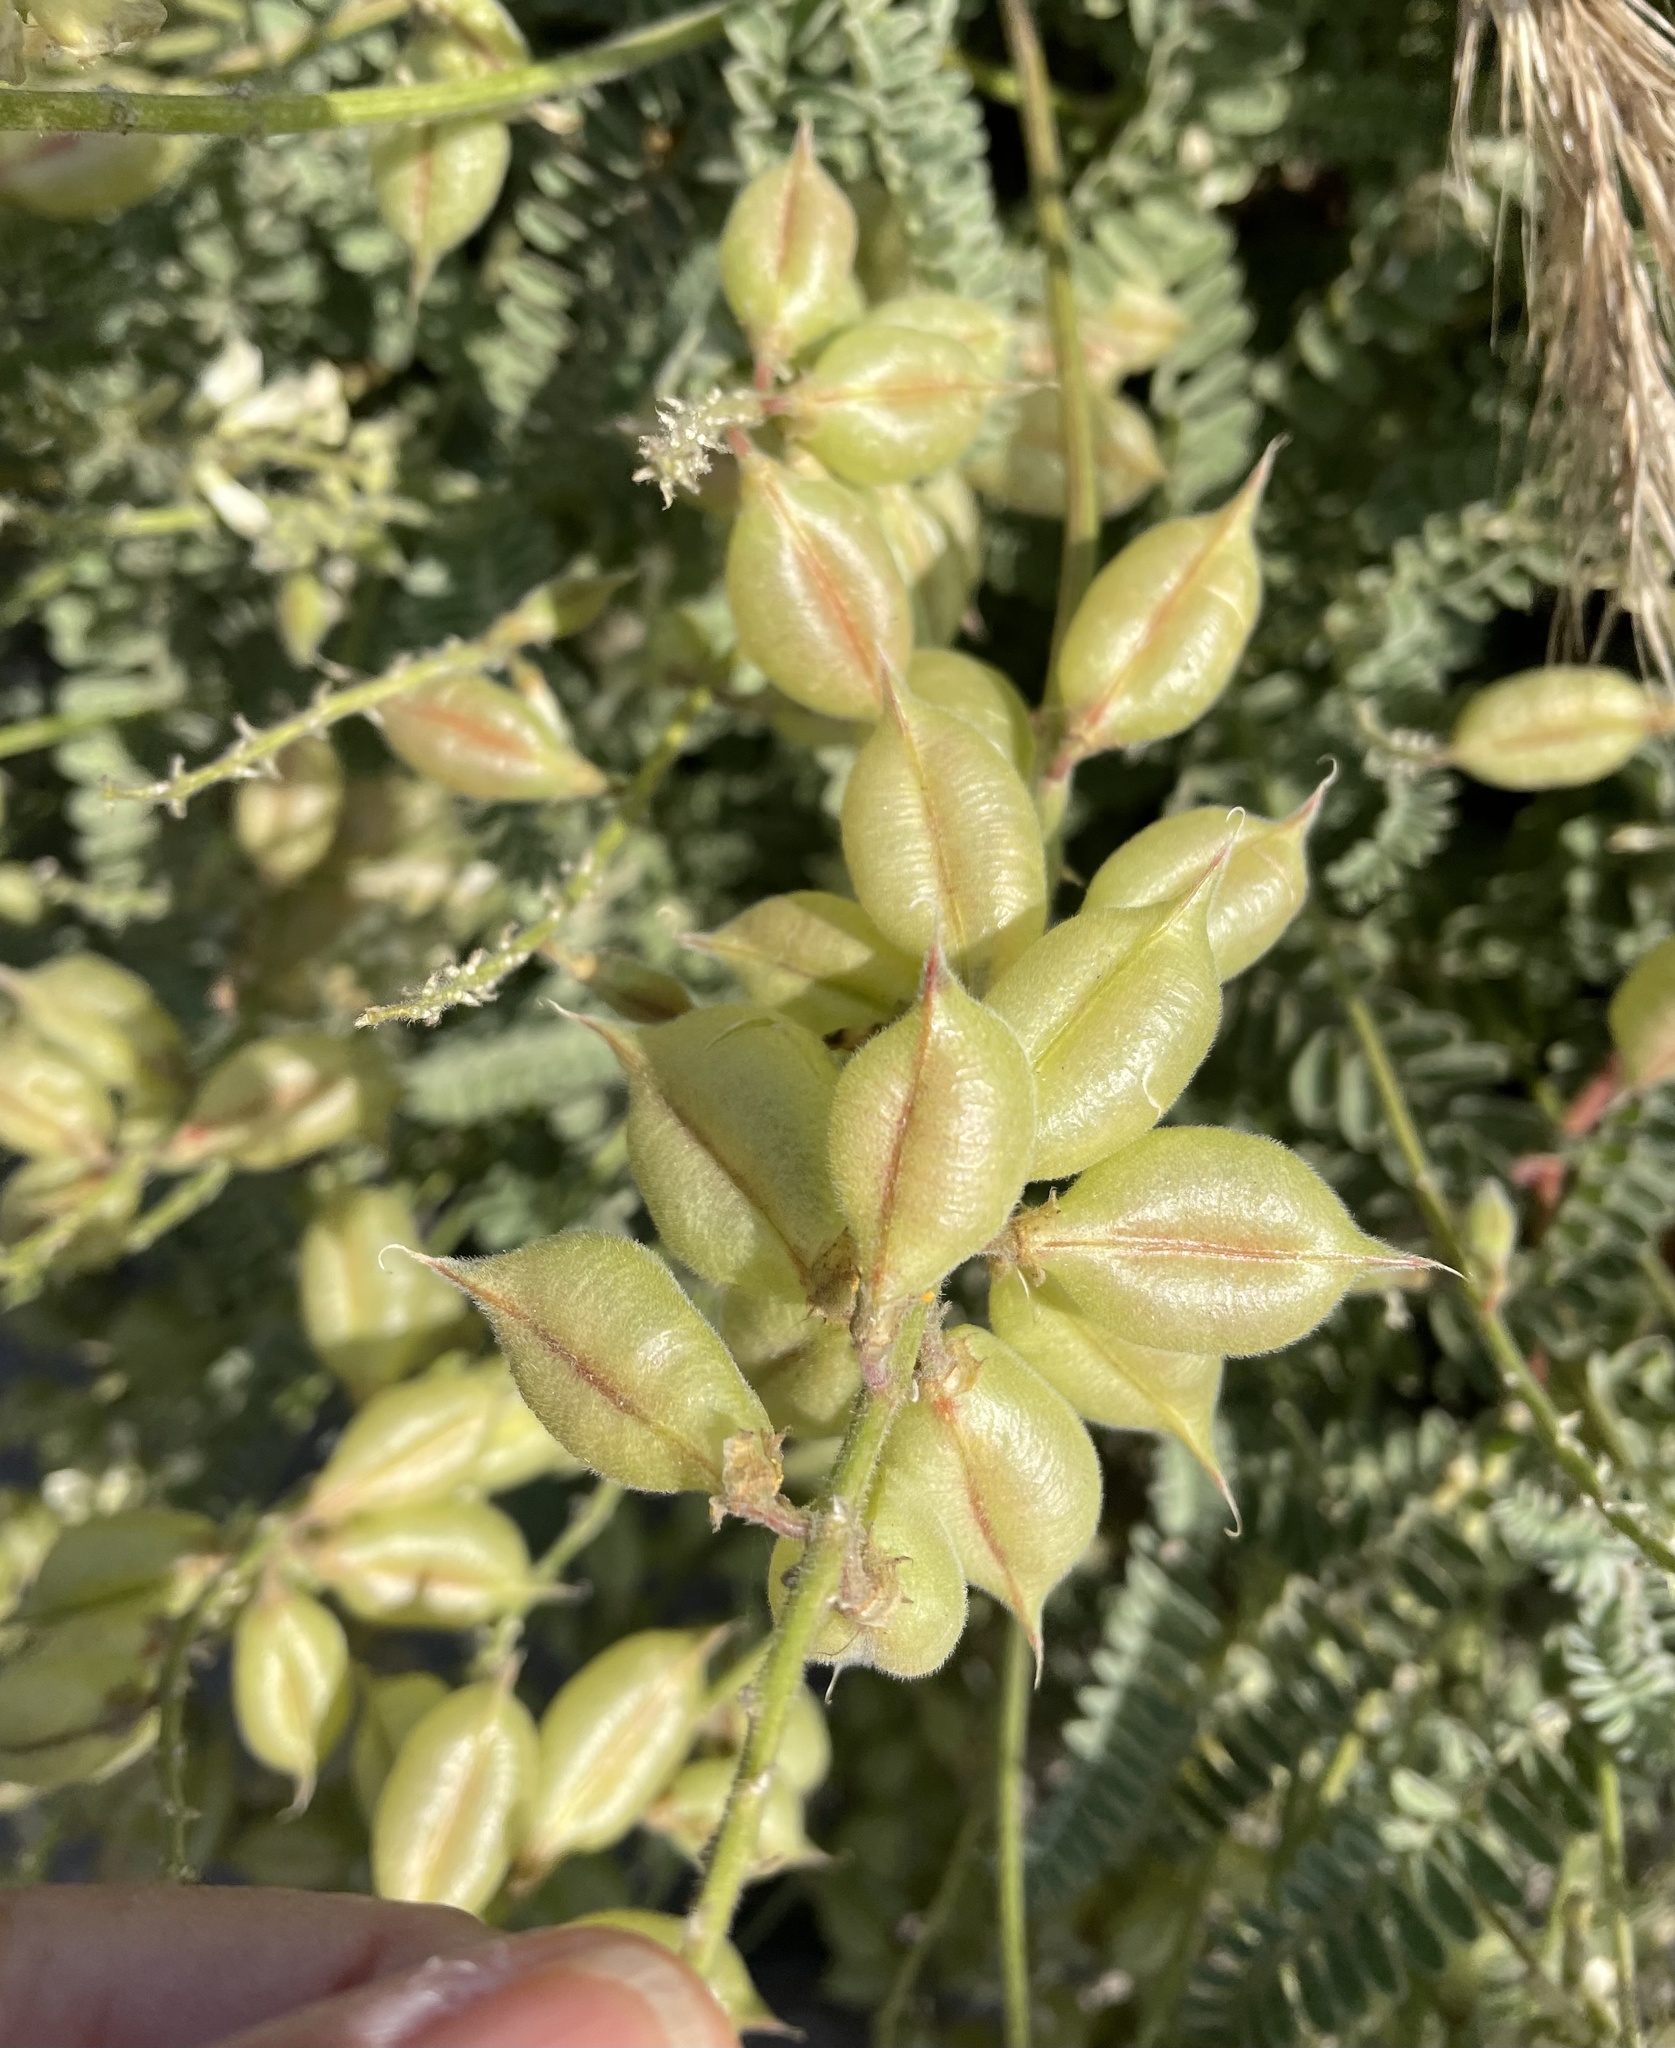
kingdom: Plantae
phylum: Tracheophyta
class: Magnoliopsida
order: Fabales
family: Fabaceae
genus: Astragalus
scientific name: Astragalus nuttallii
